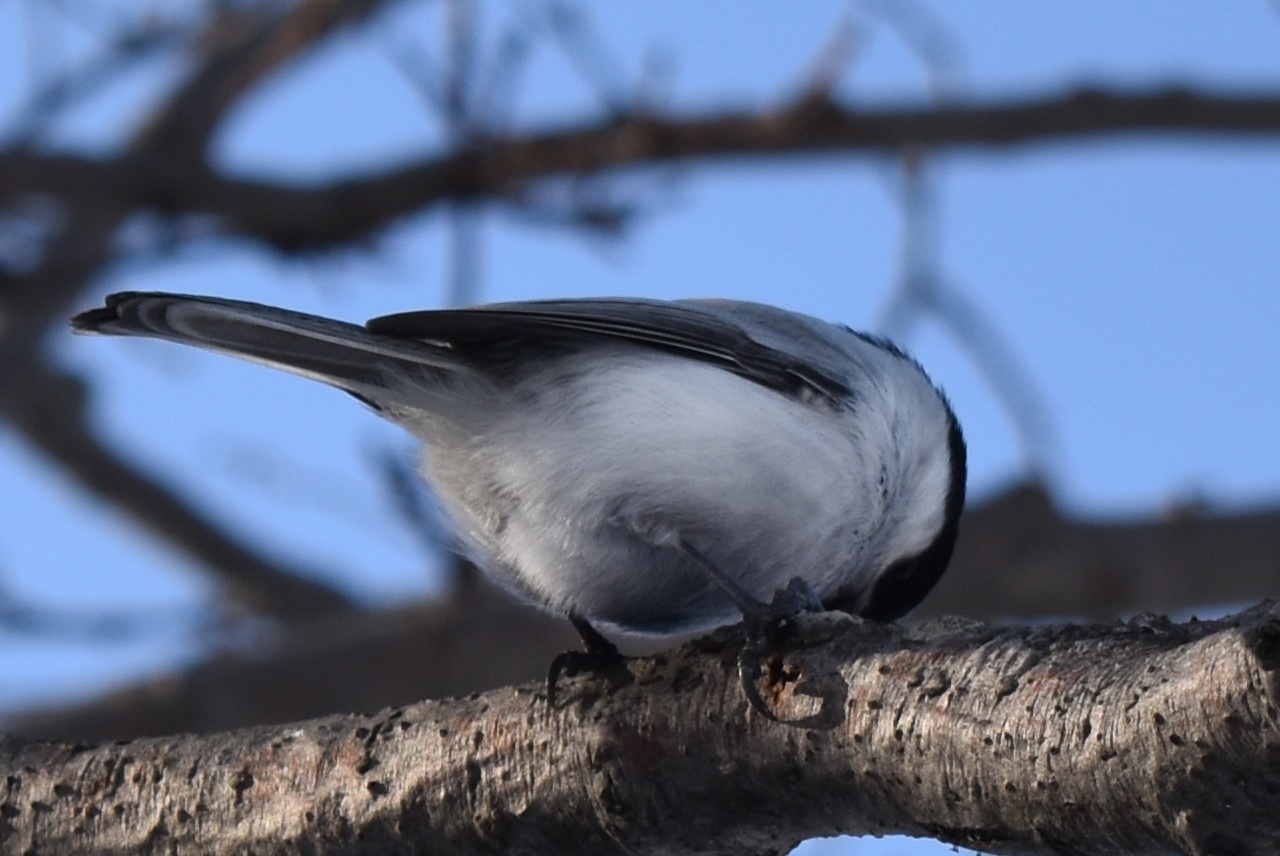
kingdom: Animalia
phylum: Chordata
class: Aves
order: Passeriformes
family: Paridae
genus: Poecile
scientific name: Poecile montanus
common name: Willow tit
